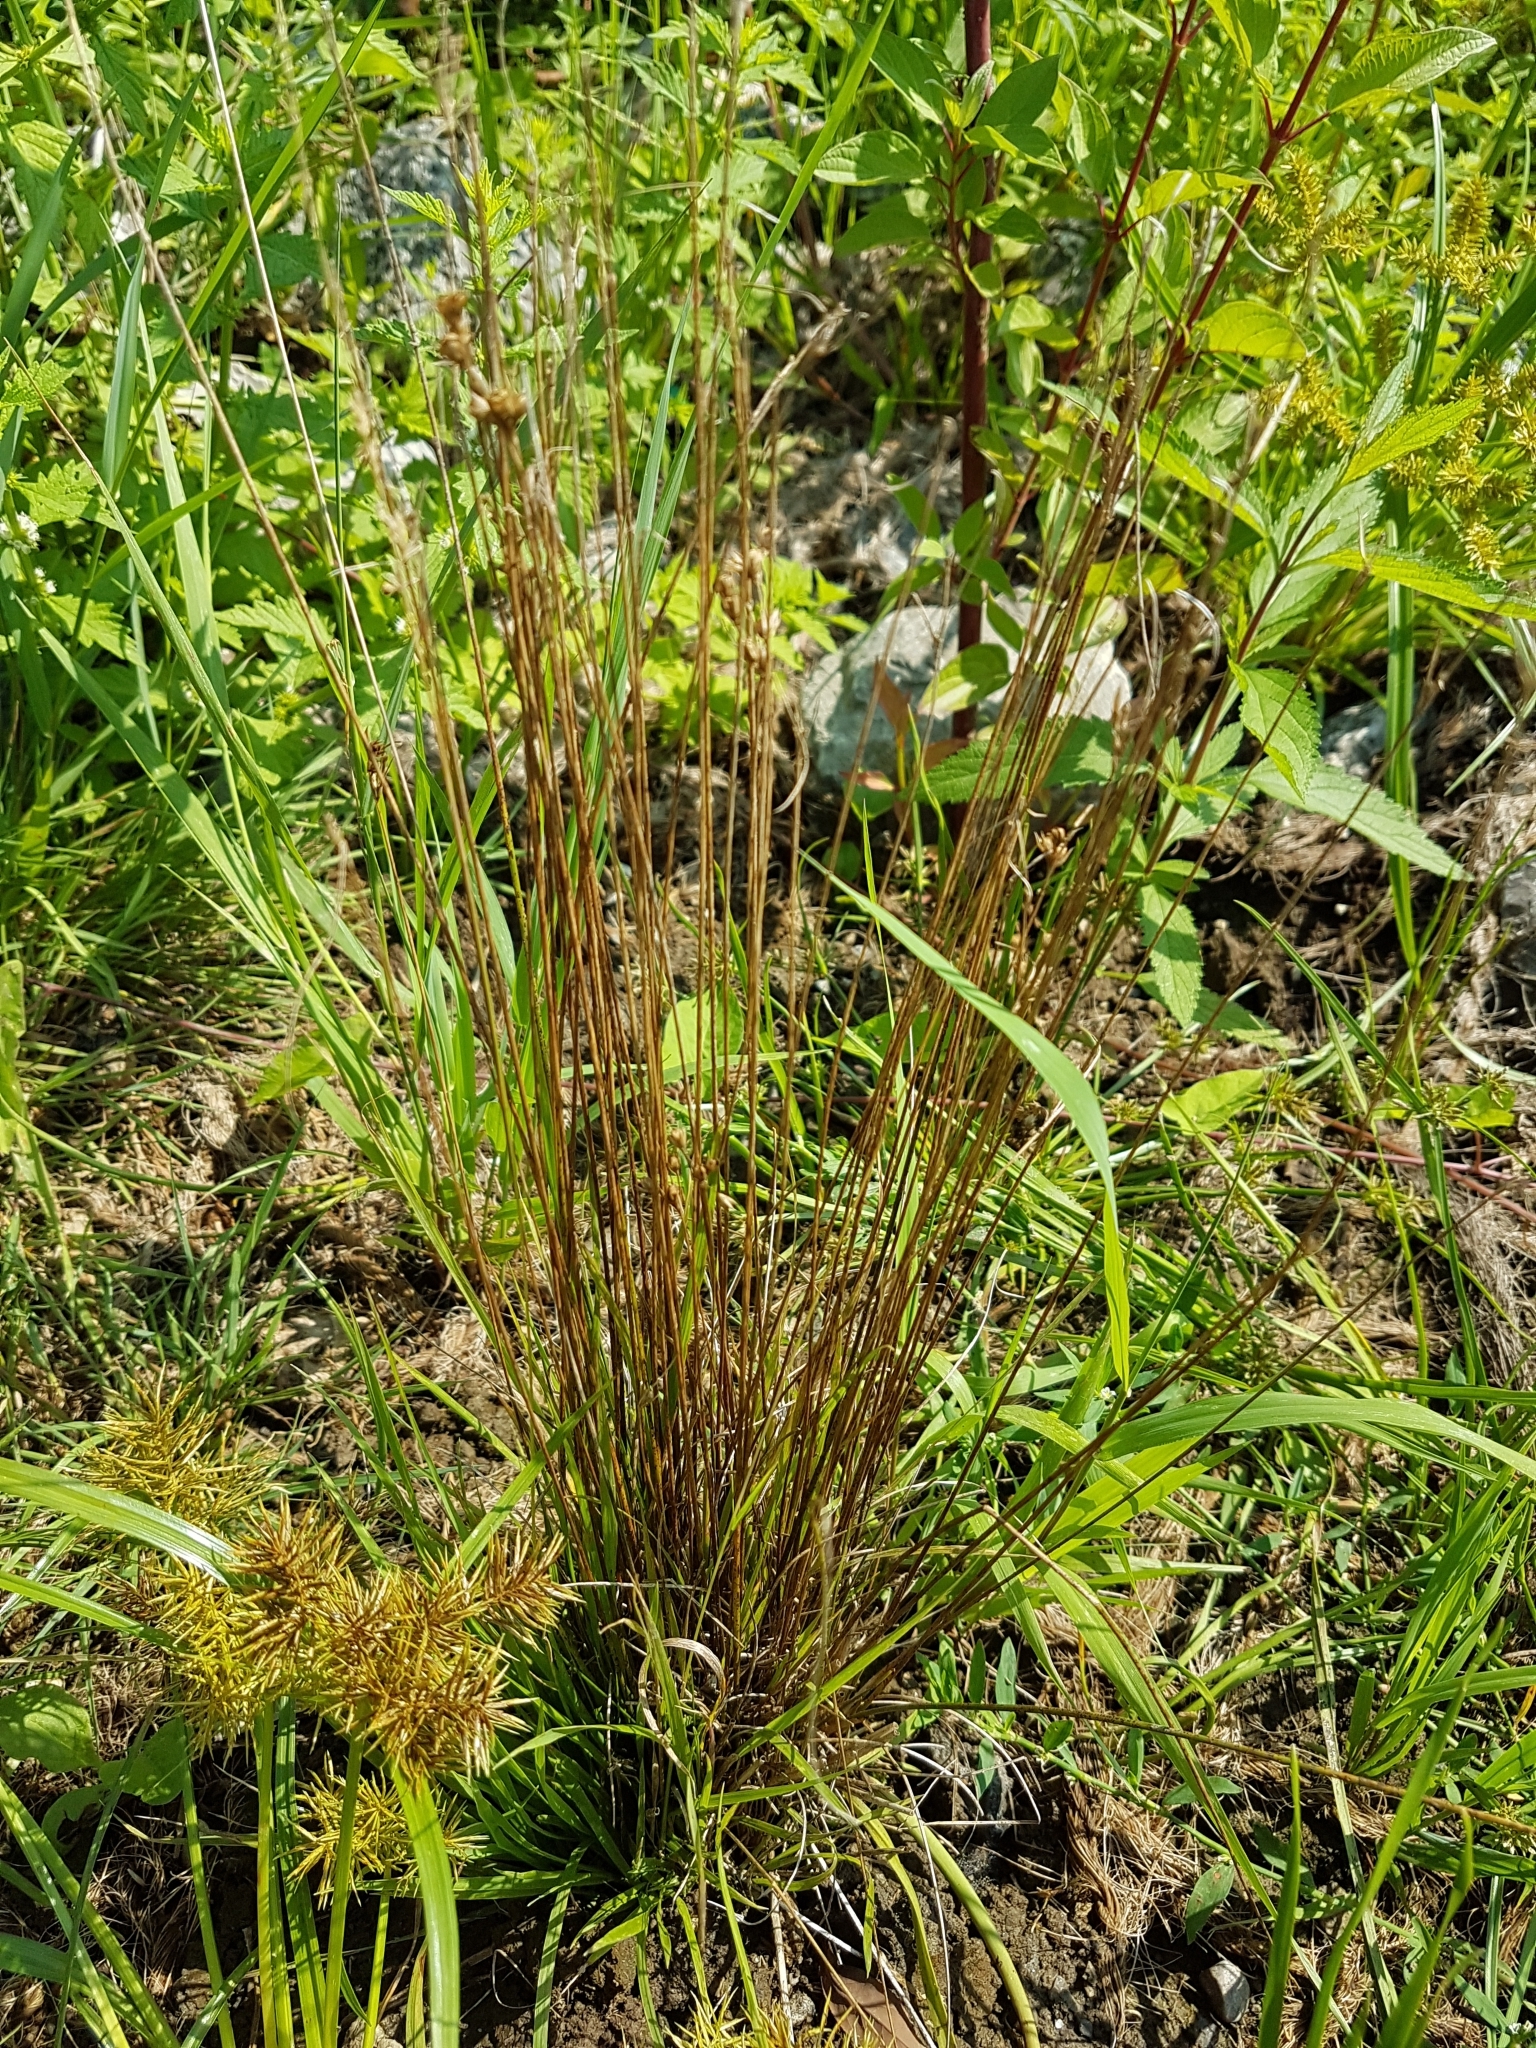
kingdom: Plantae
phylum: Tracheophyta
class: Liliopsida
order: Poales
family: Juncaceae
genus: Juncus
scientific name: Juncus dudleyi
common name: Dudley's rush
